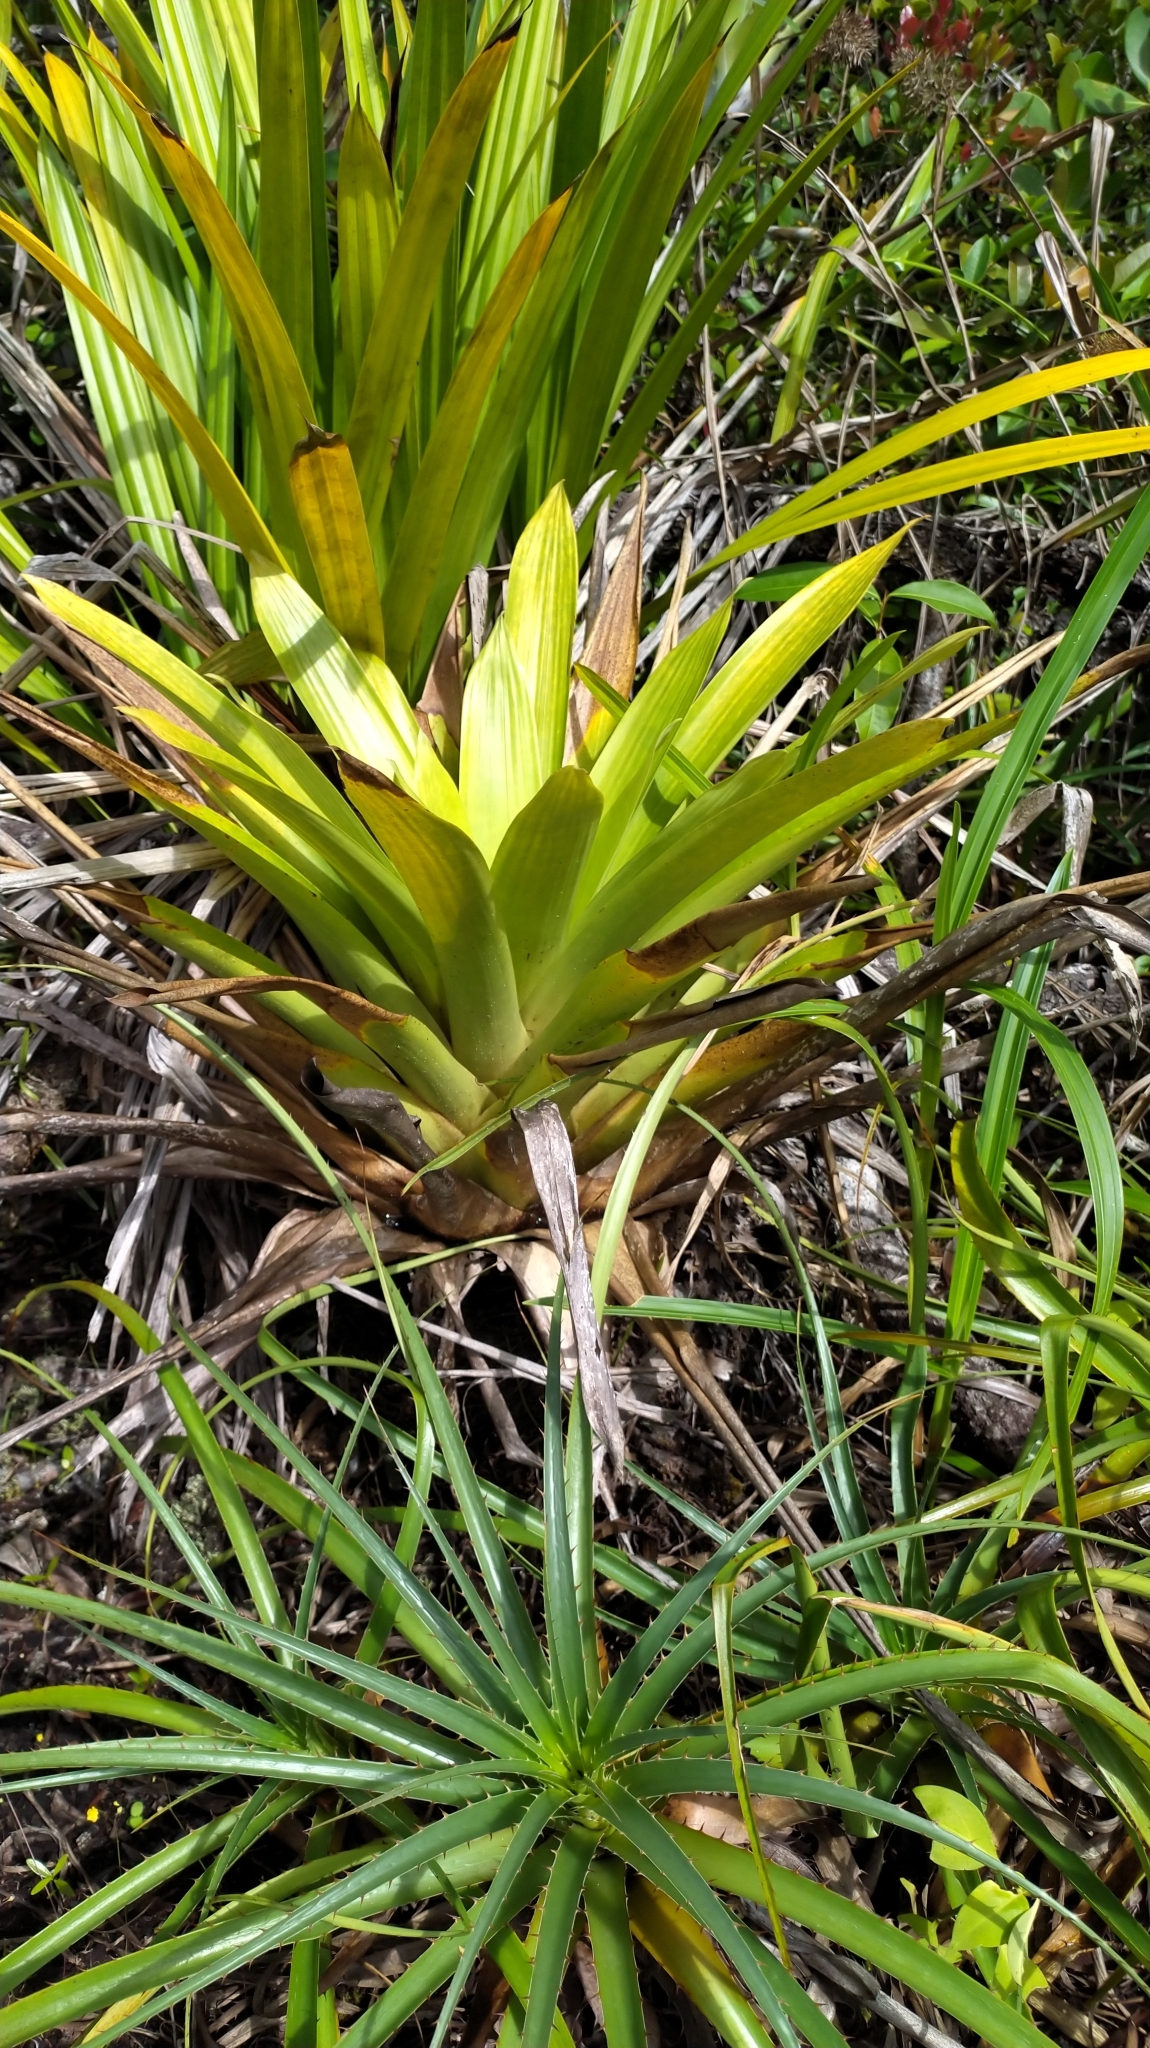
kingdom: Plantae
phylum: Tracheophyta
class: Liliopsida
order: Poales
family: Bromeliaceae
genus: Vriesea
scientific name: Vriesea pleiosticha
